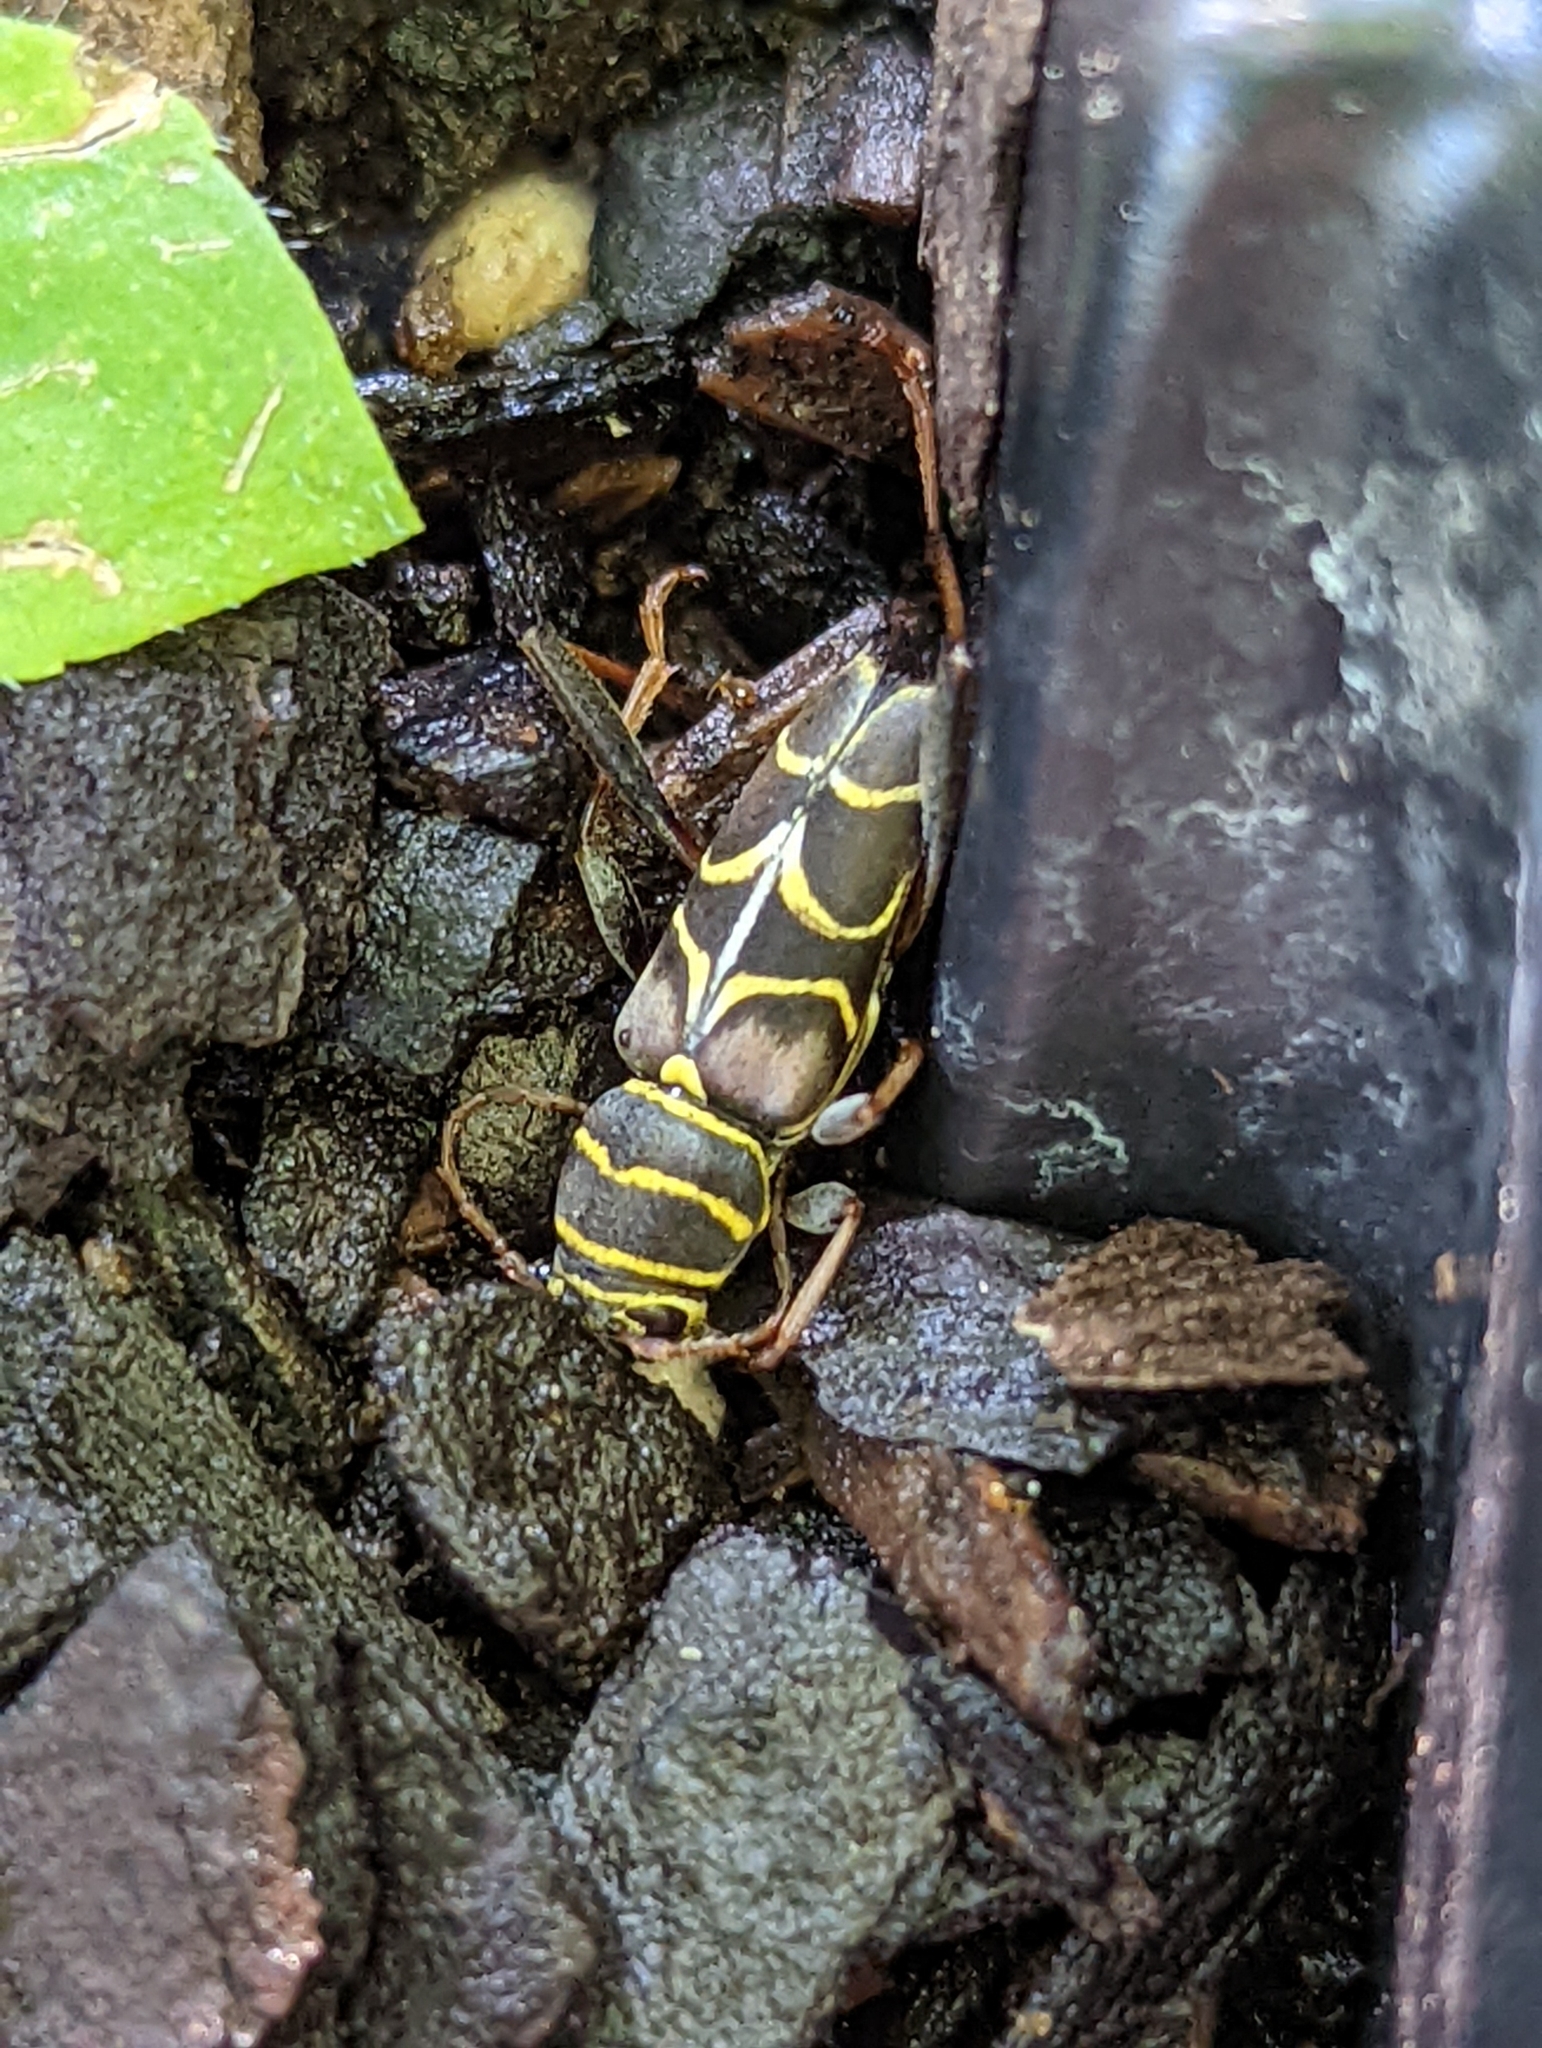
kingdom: Animalia
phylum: Arthropoda
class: Insecta
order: Coleoptera
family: Cerambycidae
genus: Neoclytus
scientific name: Neoclytus scutellaris
